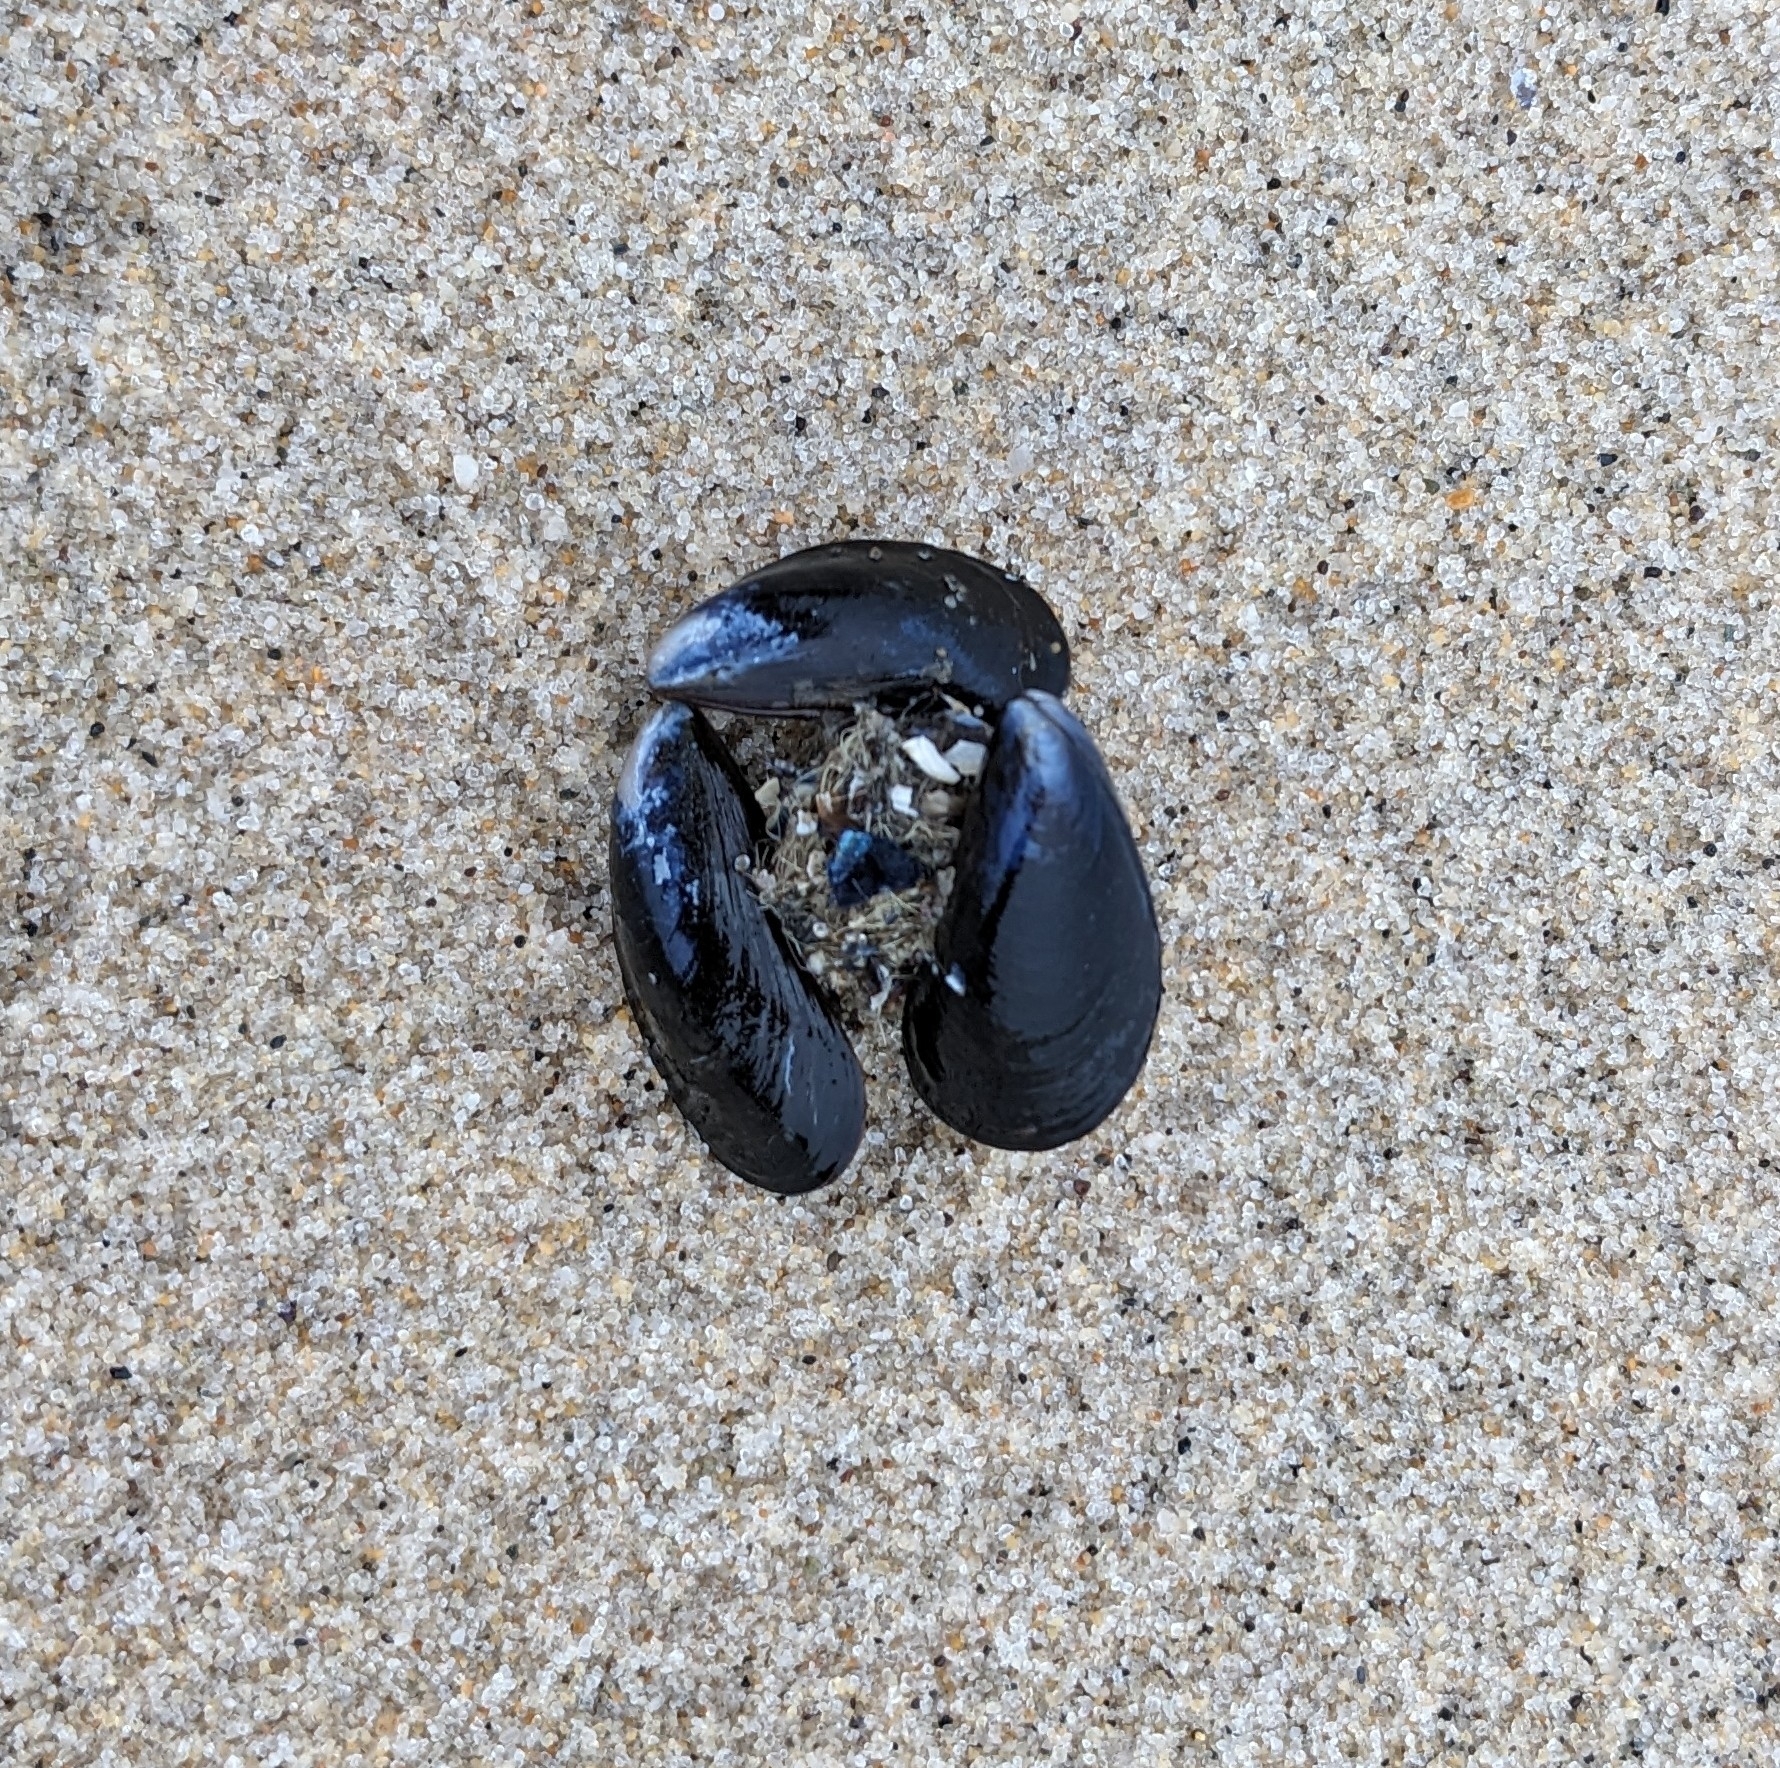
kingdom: Animalia
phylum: Mollusca
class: Bivalvia
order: Mytilida
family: Mytilidae
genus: Mytilus
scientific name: Mytilus edulis
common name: Blue mussel
